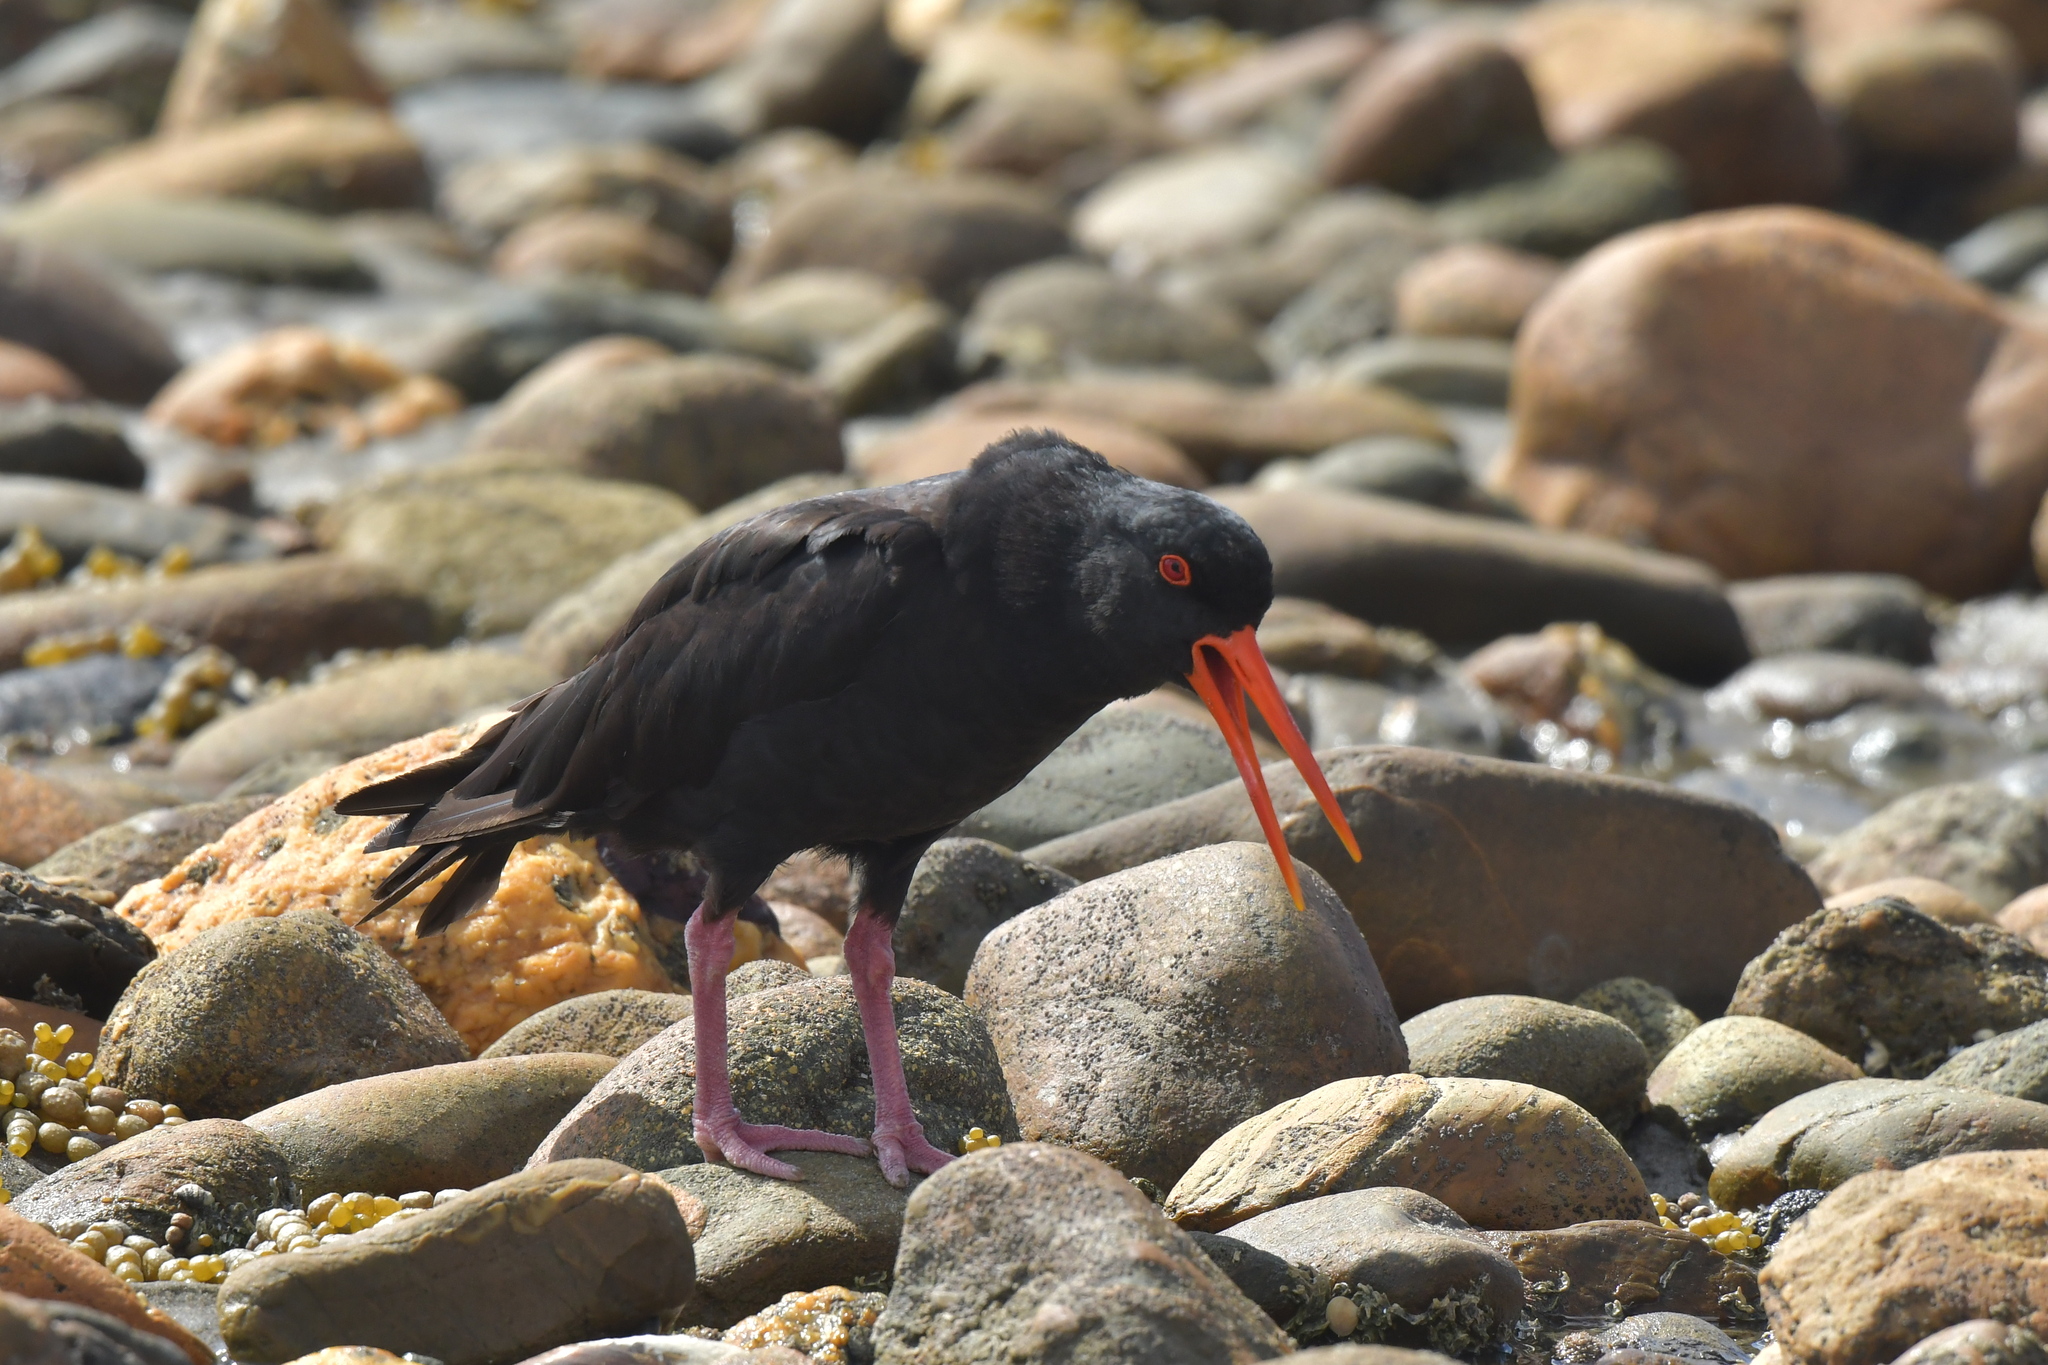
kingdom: Animalia
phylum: Chordata
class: Aves
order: Charadriiformes
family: Haematopodidae
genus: Haematopus
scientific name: Haematopus unicolor
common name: Variable oystercatcher
